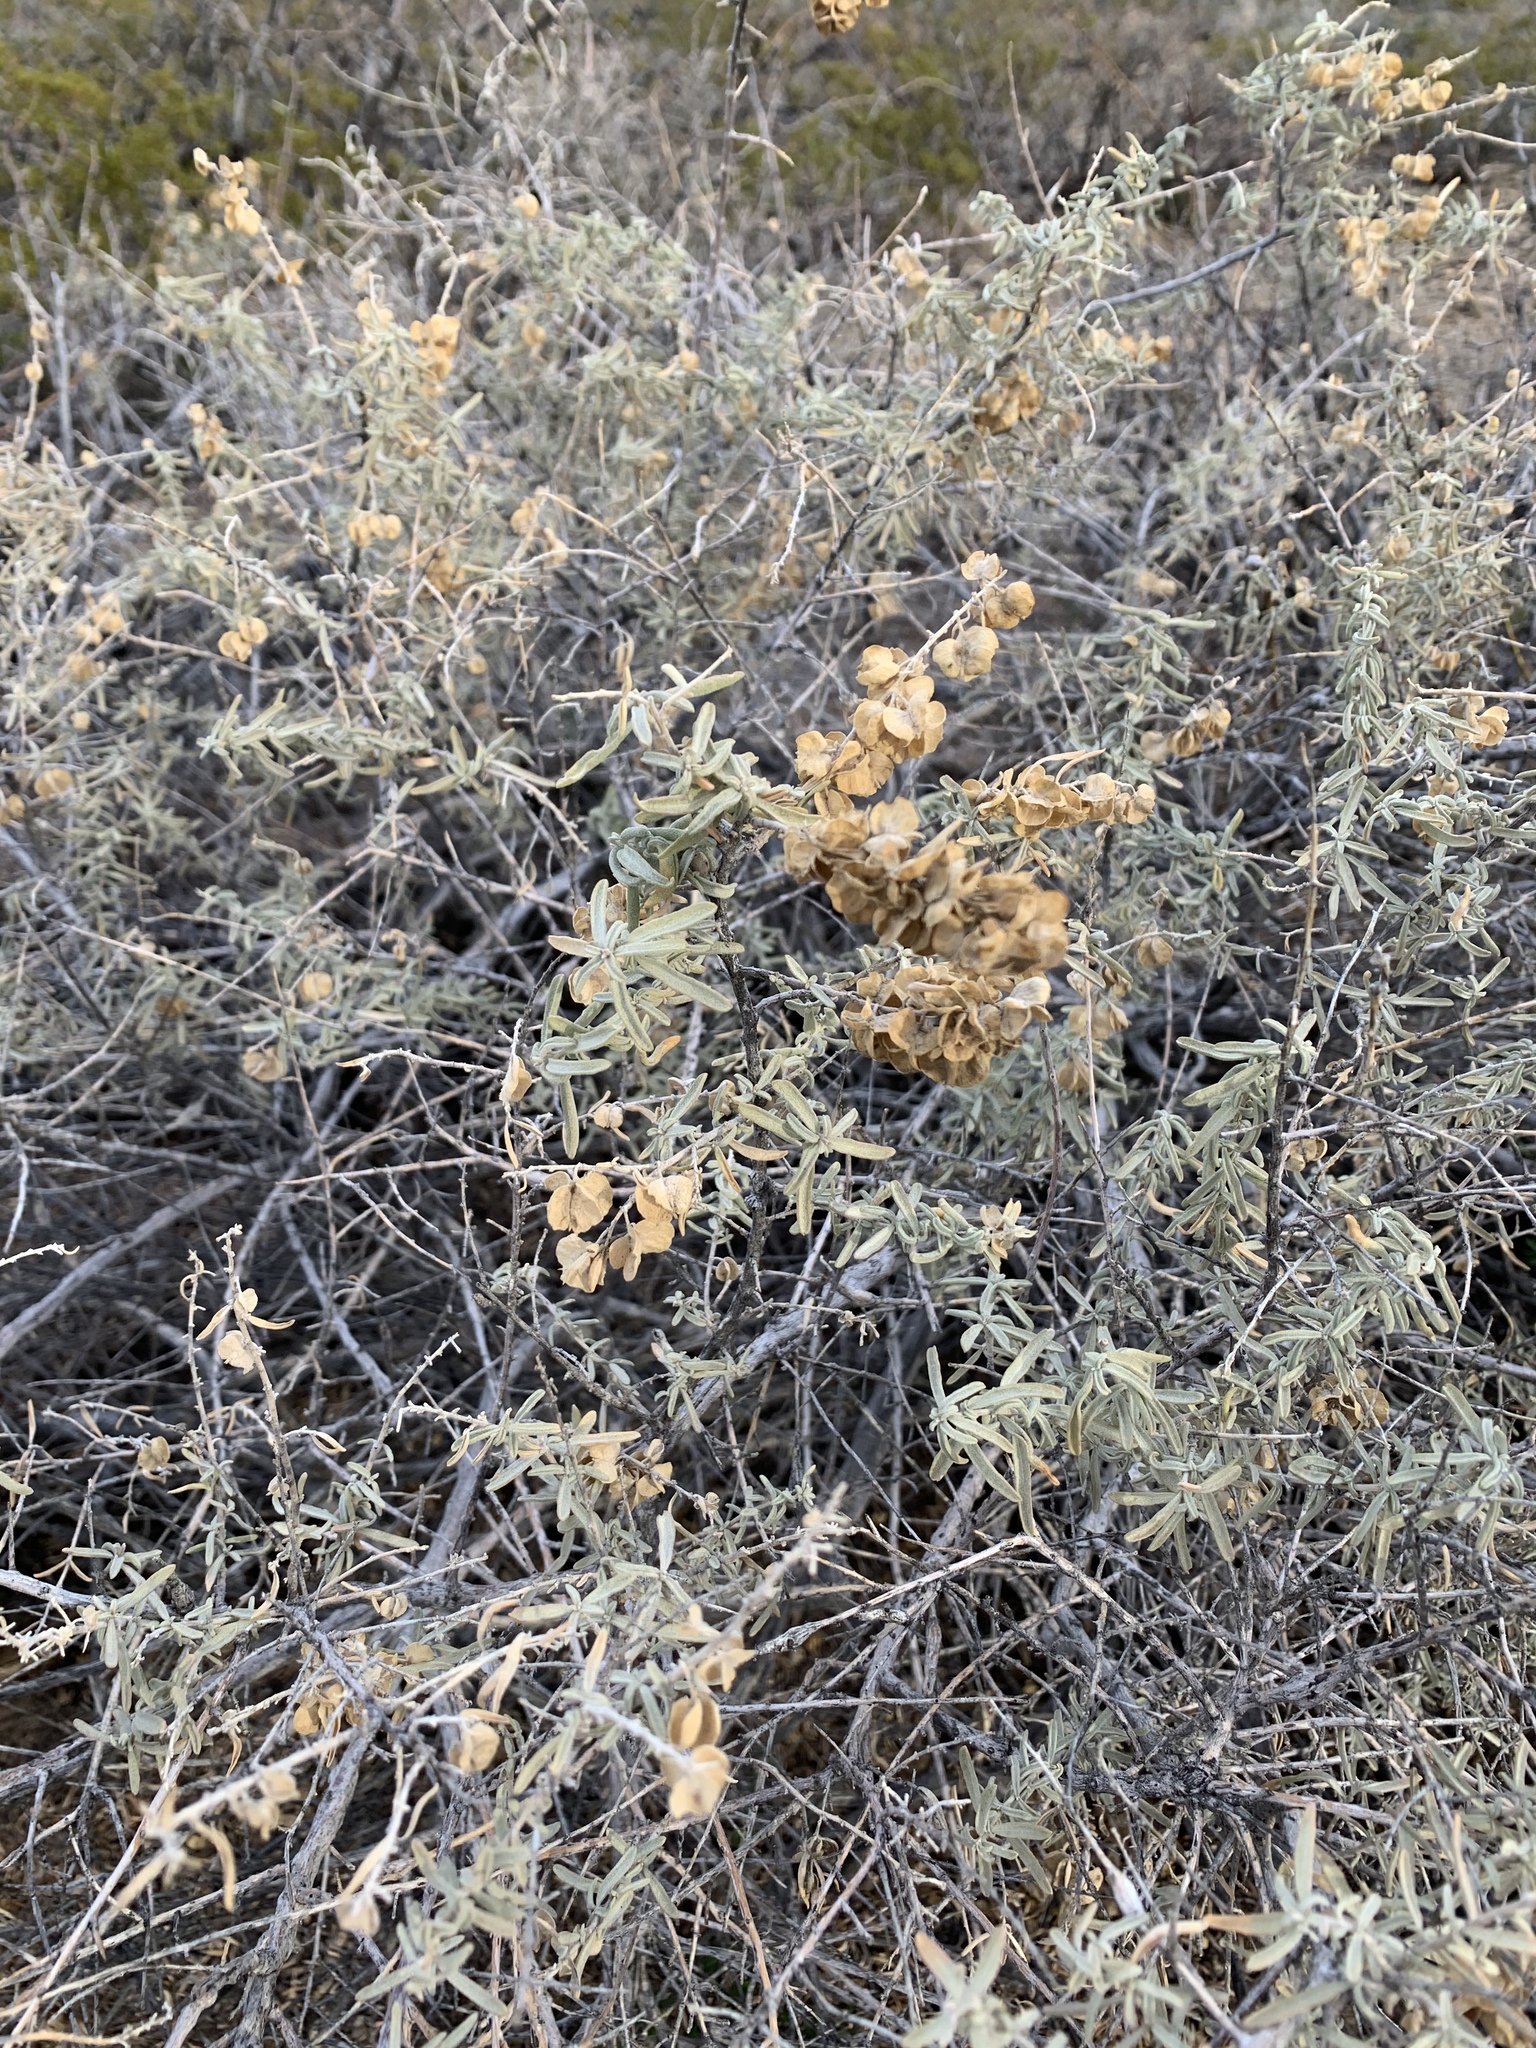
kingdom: Plantae
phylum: Tracheophyta
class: Magnoliopsida
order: Caryophyllales
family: Amaranthaceae
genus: Atriplex
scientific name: Atriplex canescens
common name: Four-wing saltbush
